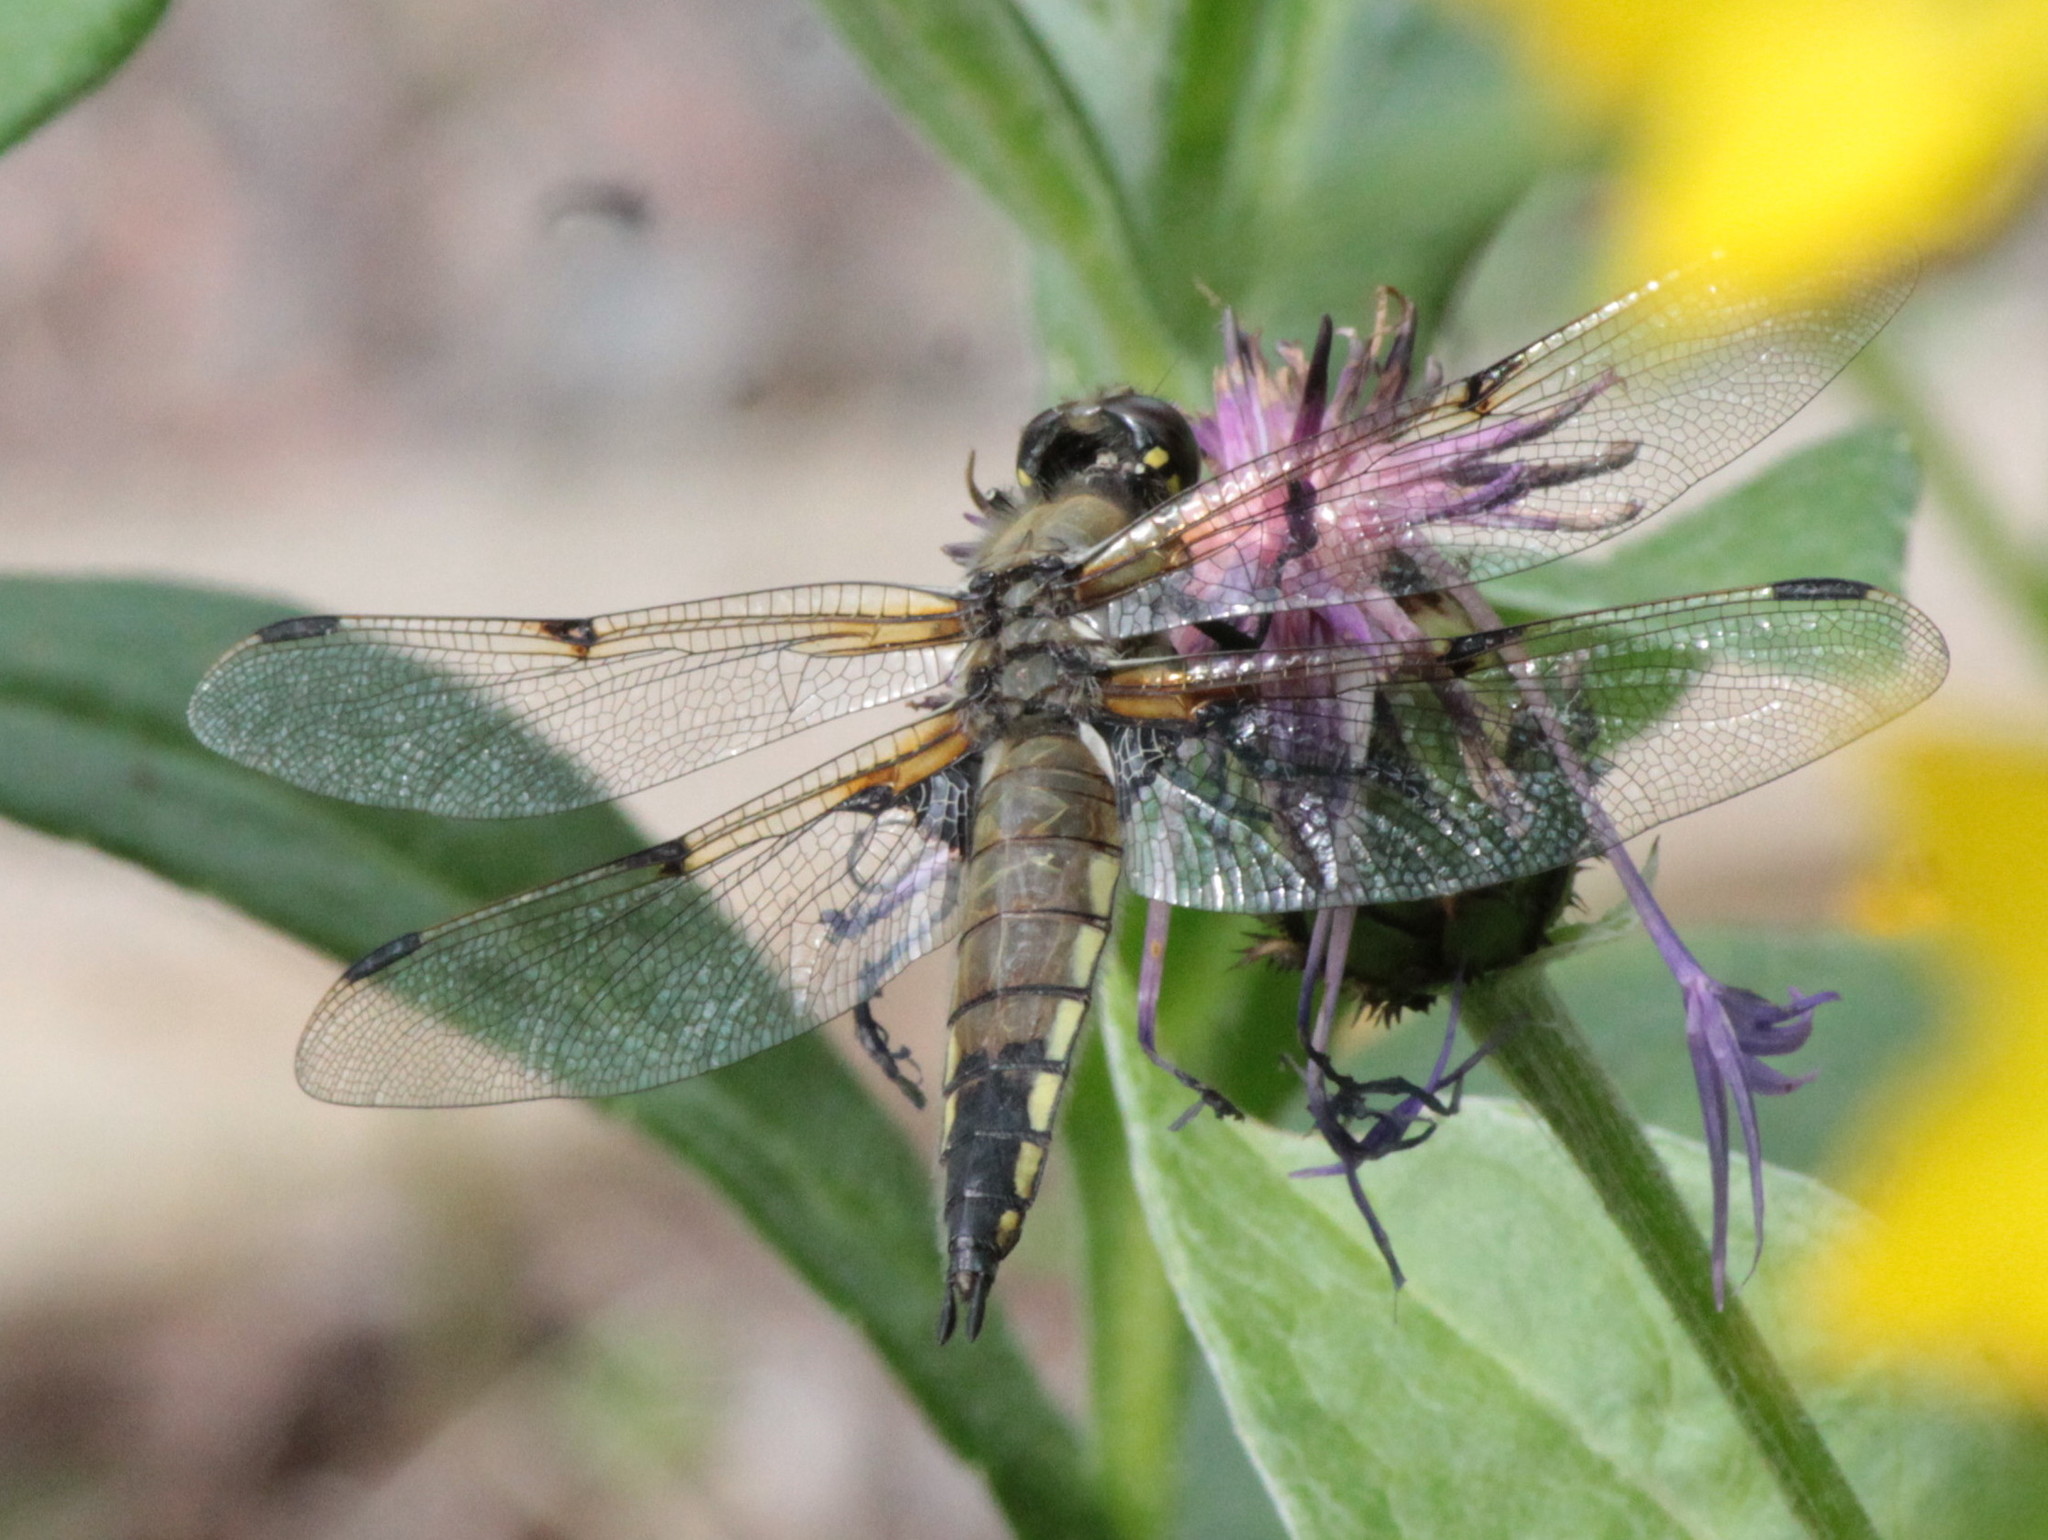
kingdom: Animalia
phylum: Arthropoda
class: Insecta
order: Odonata
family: Libellulidae
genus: Libellula
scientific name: Libellula quadrimaculata
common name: Four-spotted chaser
